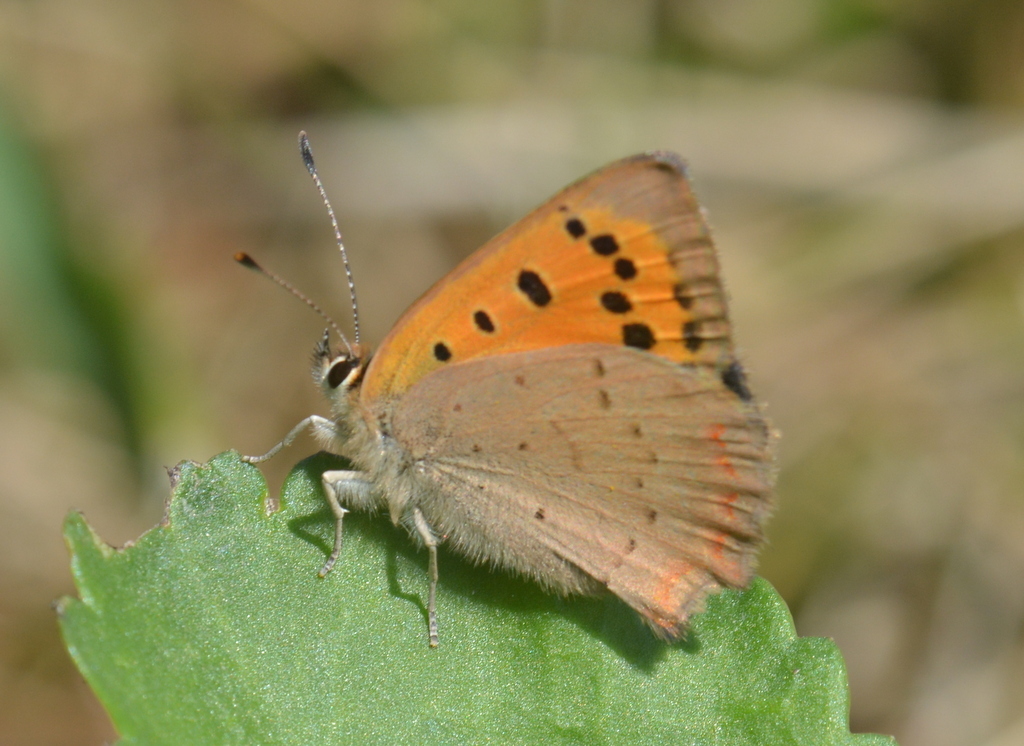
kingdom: Animalia
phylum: Arthropoda
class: Insecta
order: Lepidoptera
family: Lycaenidae
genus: Lycaena
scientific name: Lycaena phlaeas
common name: Small copper
